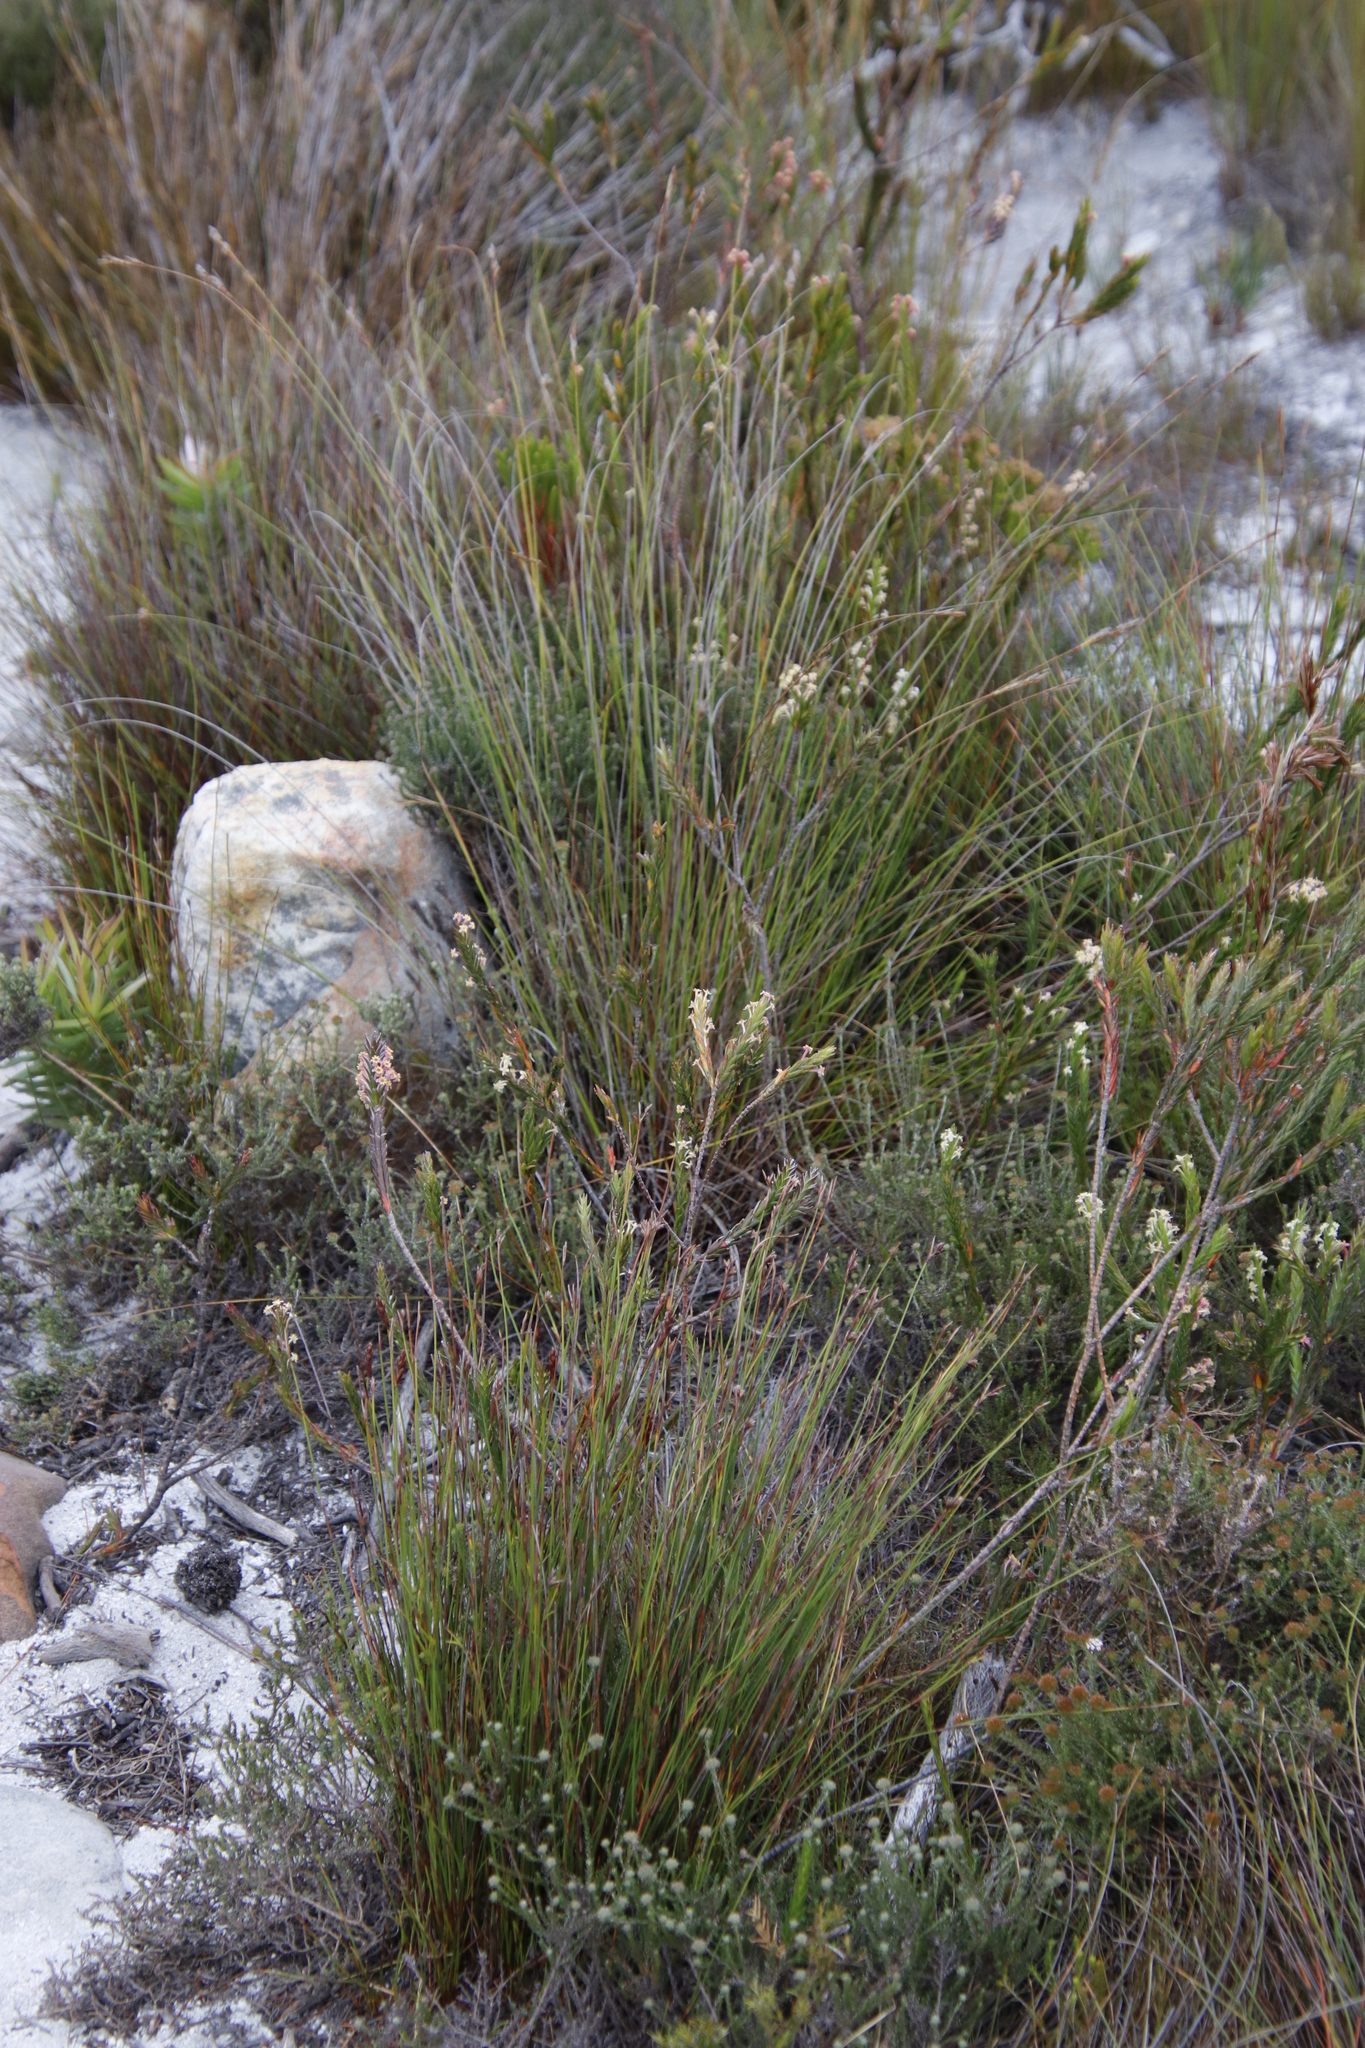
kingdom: Plantae
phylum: Tracheophyta
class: Magnoliopsida
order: Malvales
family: Thymelaeaceae
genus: Struthiola
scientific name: Struthiola ciliata
